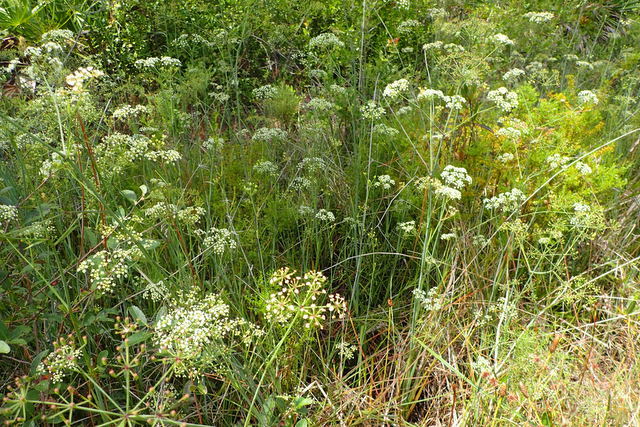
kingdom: Plantae
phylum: Tracheophyta
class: Magnoliopsida
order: Apiales
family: Apiaceae
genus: Tiedemannia
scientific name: Tiedemannia filiformis
